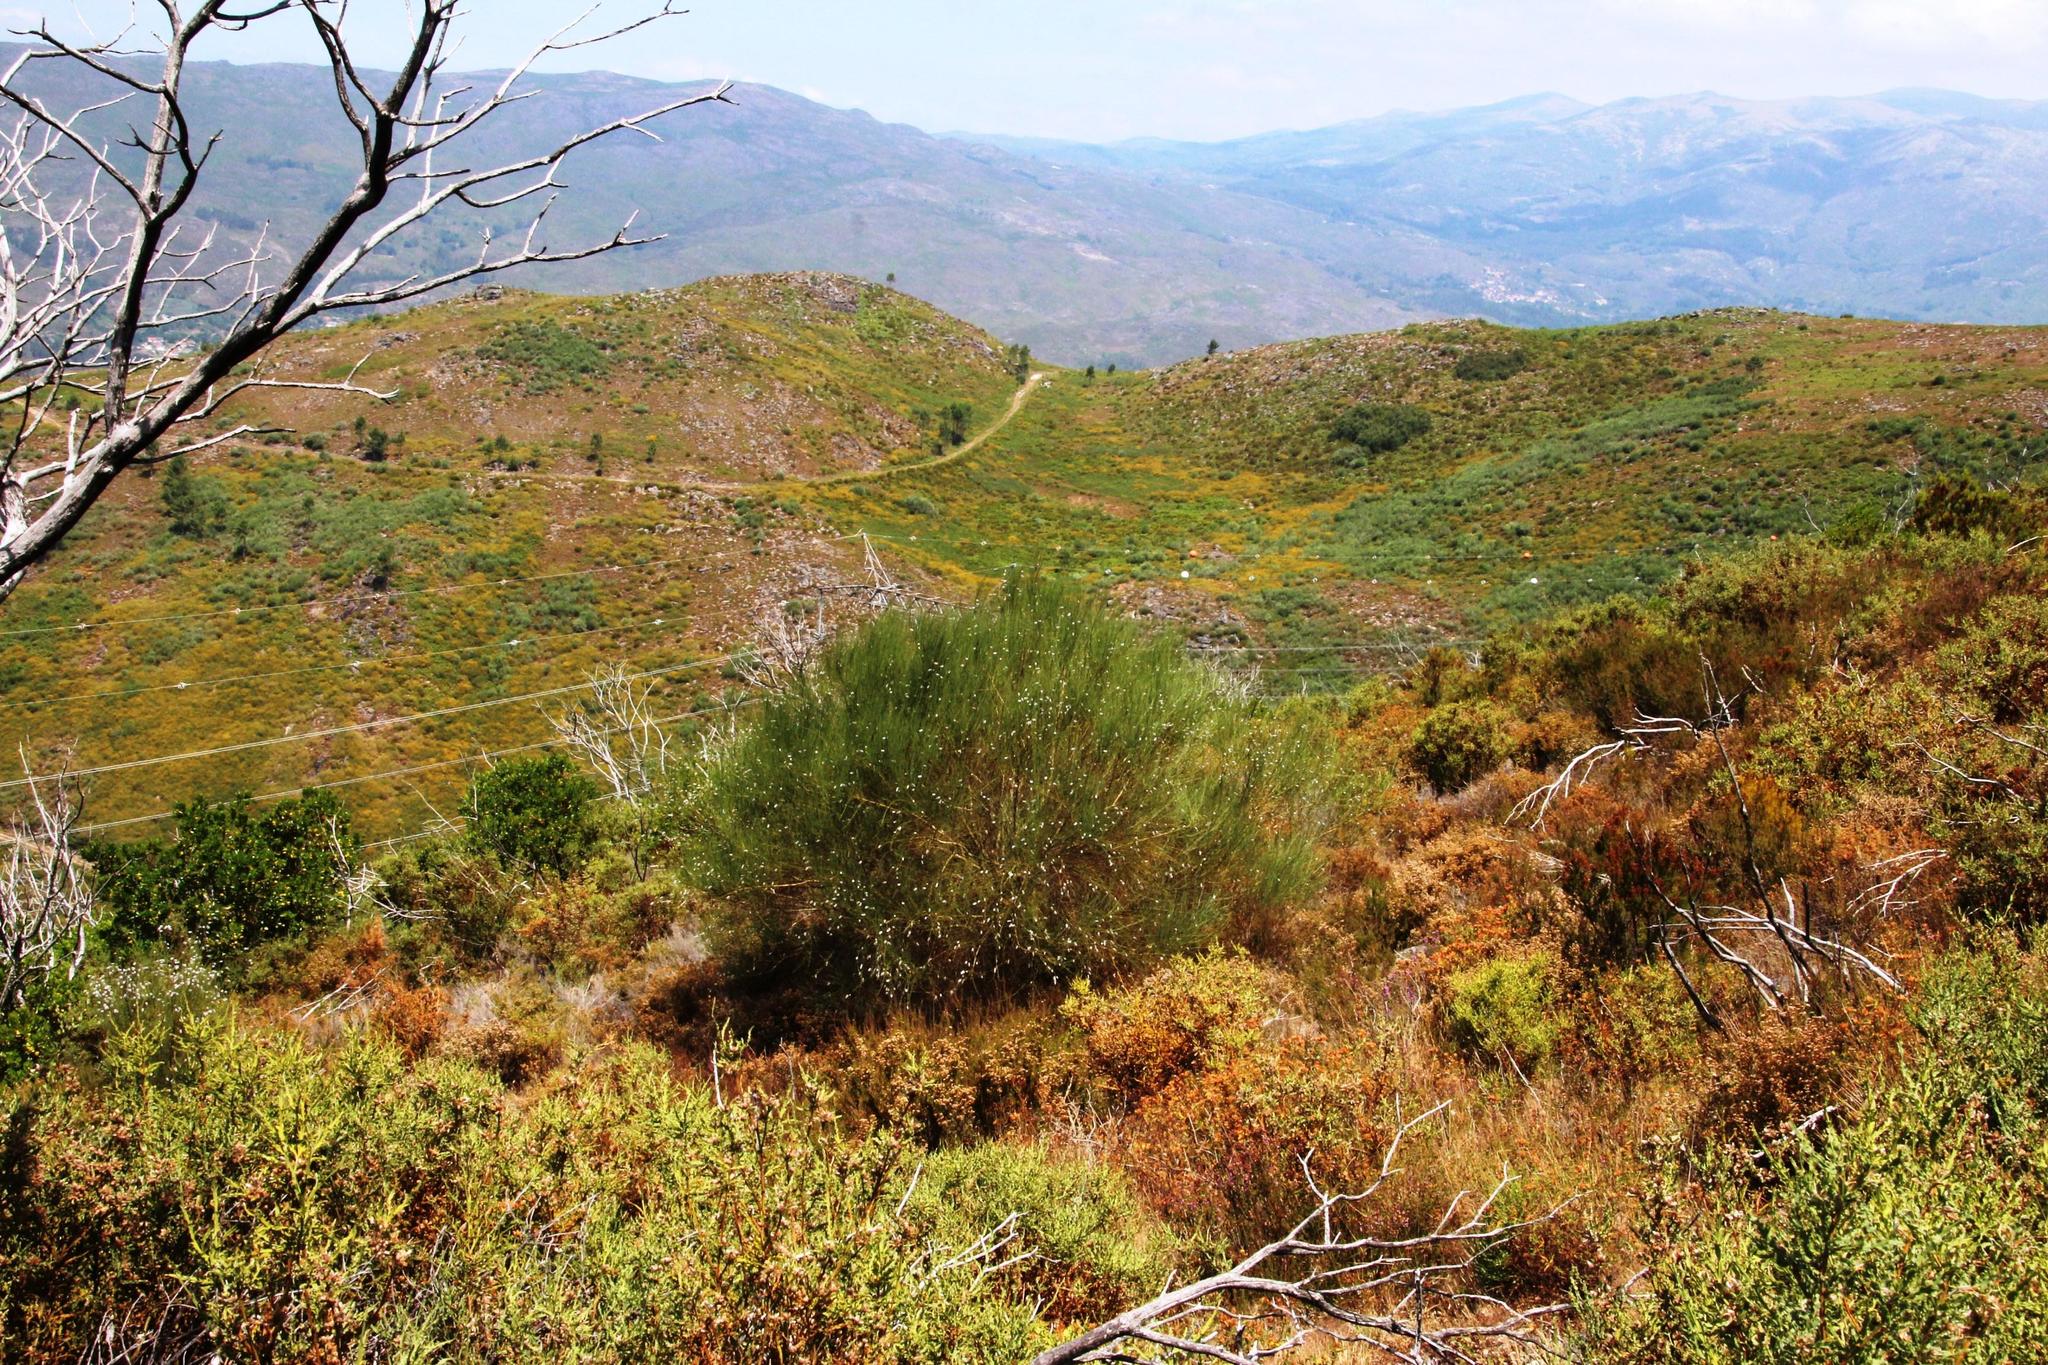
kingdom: Plantae
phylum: Tracheophyta
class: Magnoliopsida
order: Fabales
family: Fabaceae
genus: Cytisus
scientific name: Cytisus striatus
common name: Hairy-fruited broom
